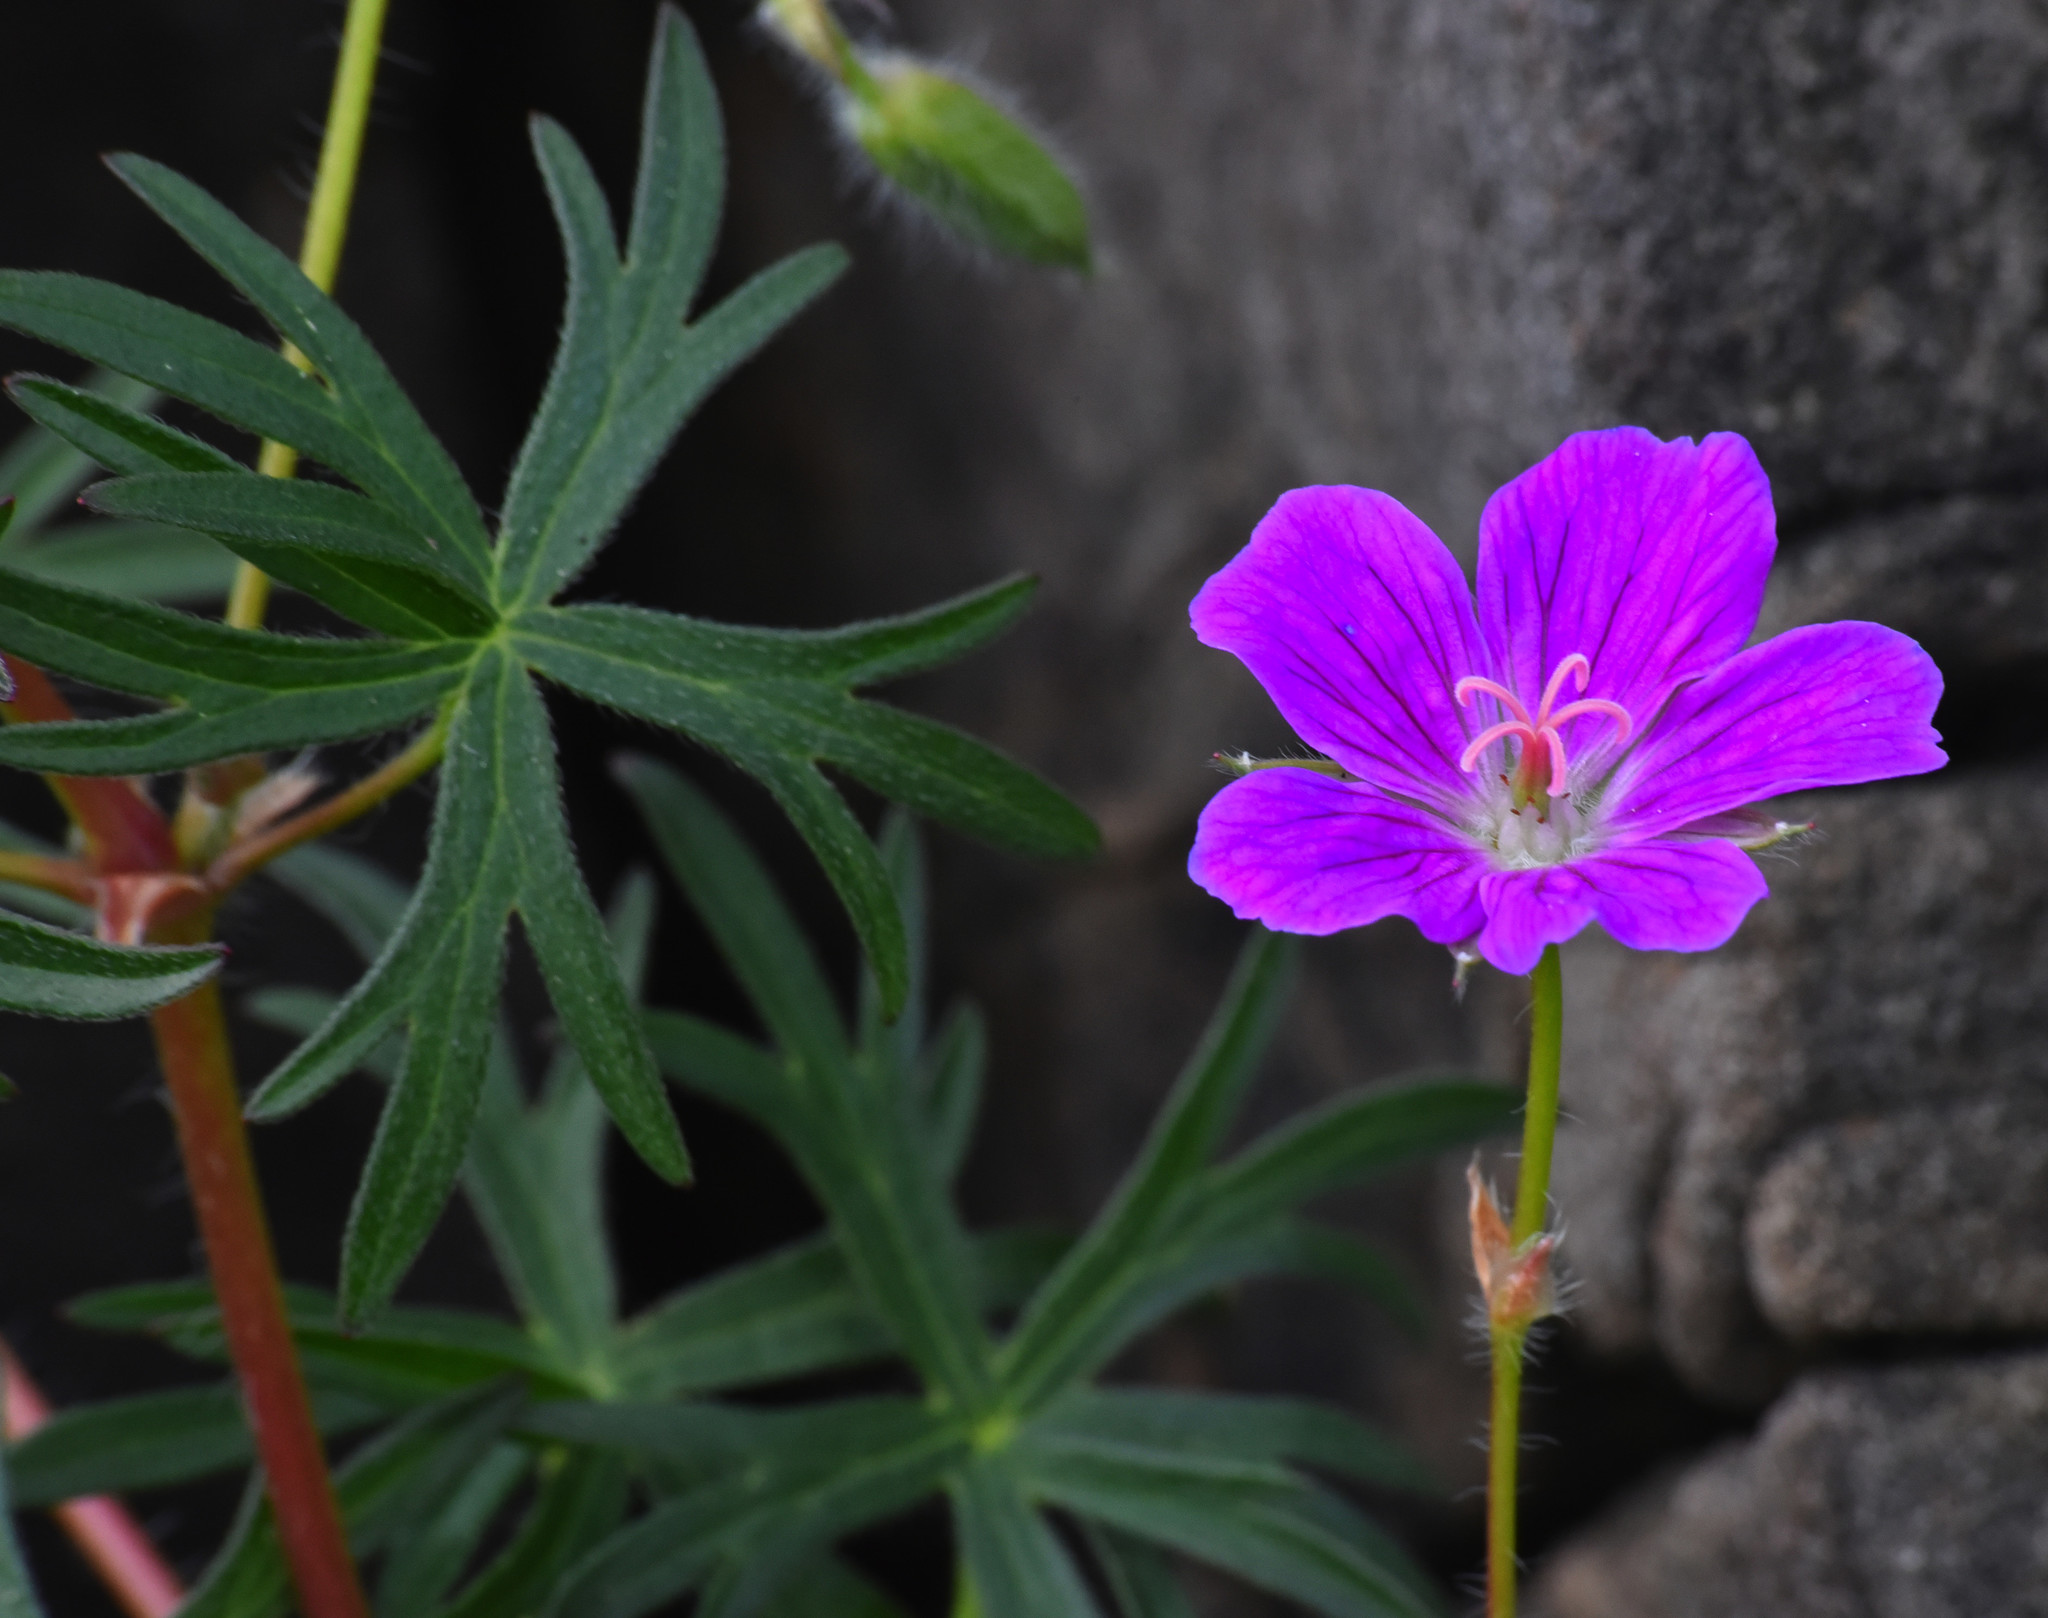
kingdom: Plantae
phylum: Tracheophyta
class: Magnoliopsida
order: Geraniales
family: Geraniaceae
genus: Geranium
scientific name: Geranium sanguineum
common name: Bloody crane's-bill
